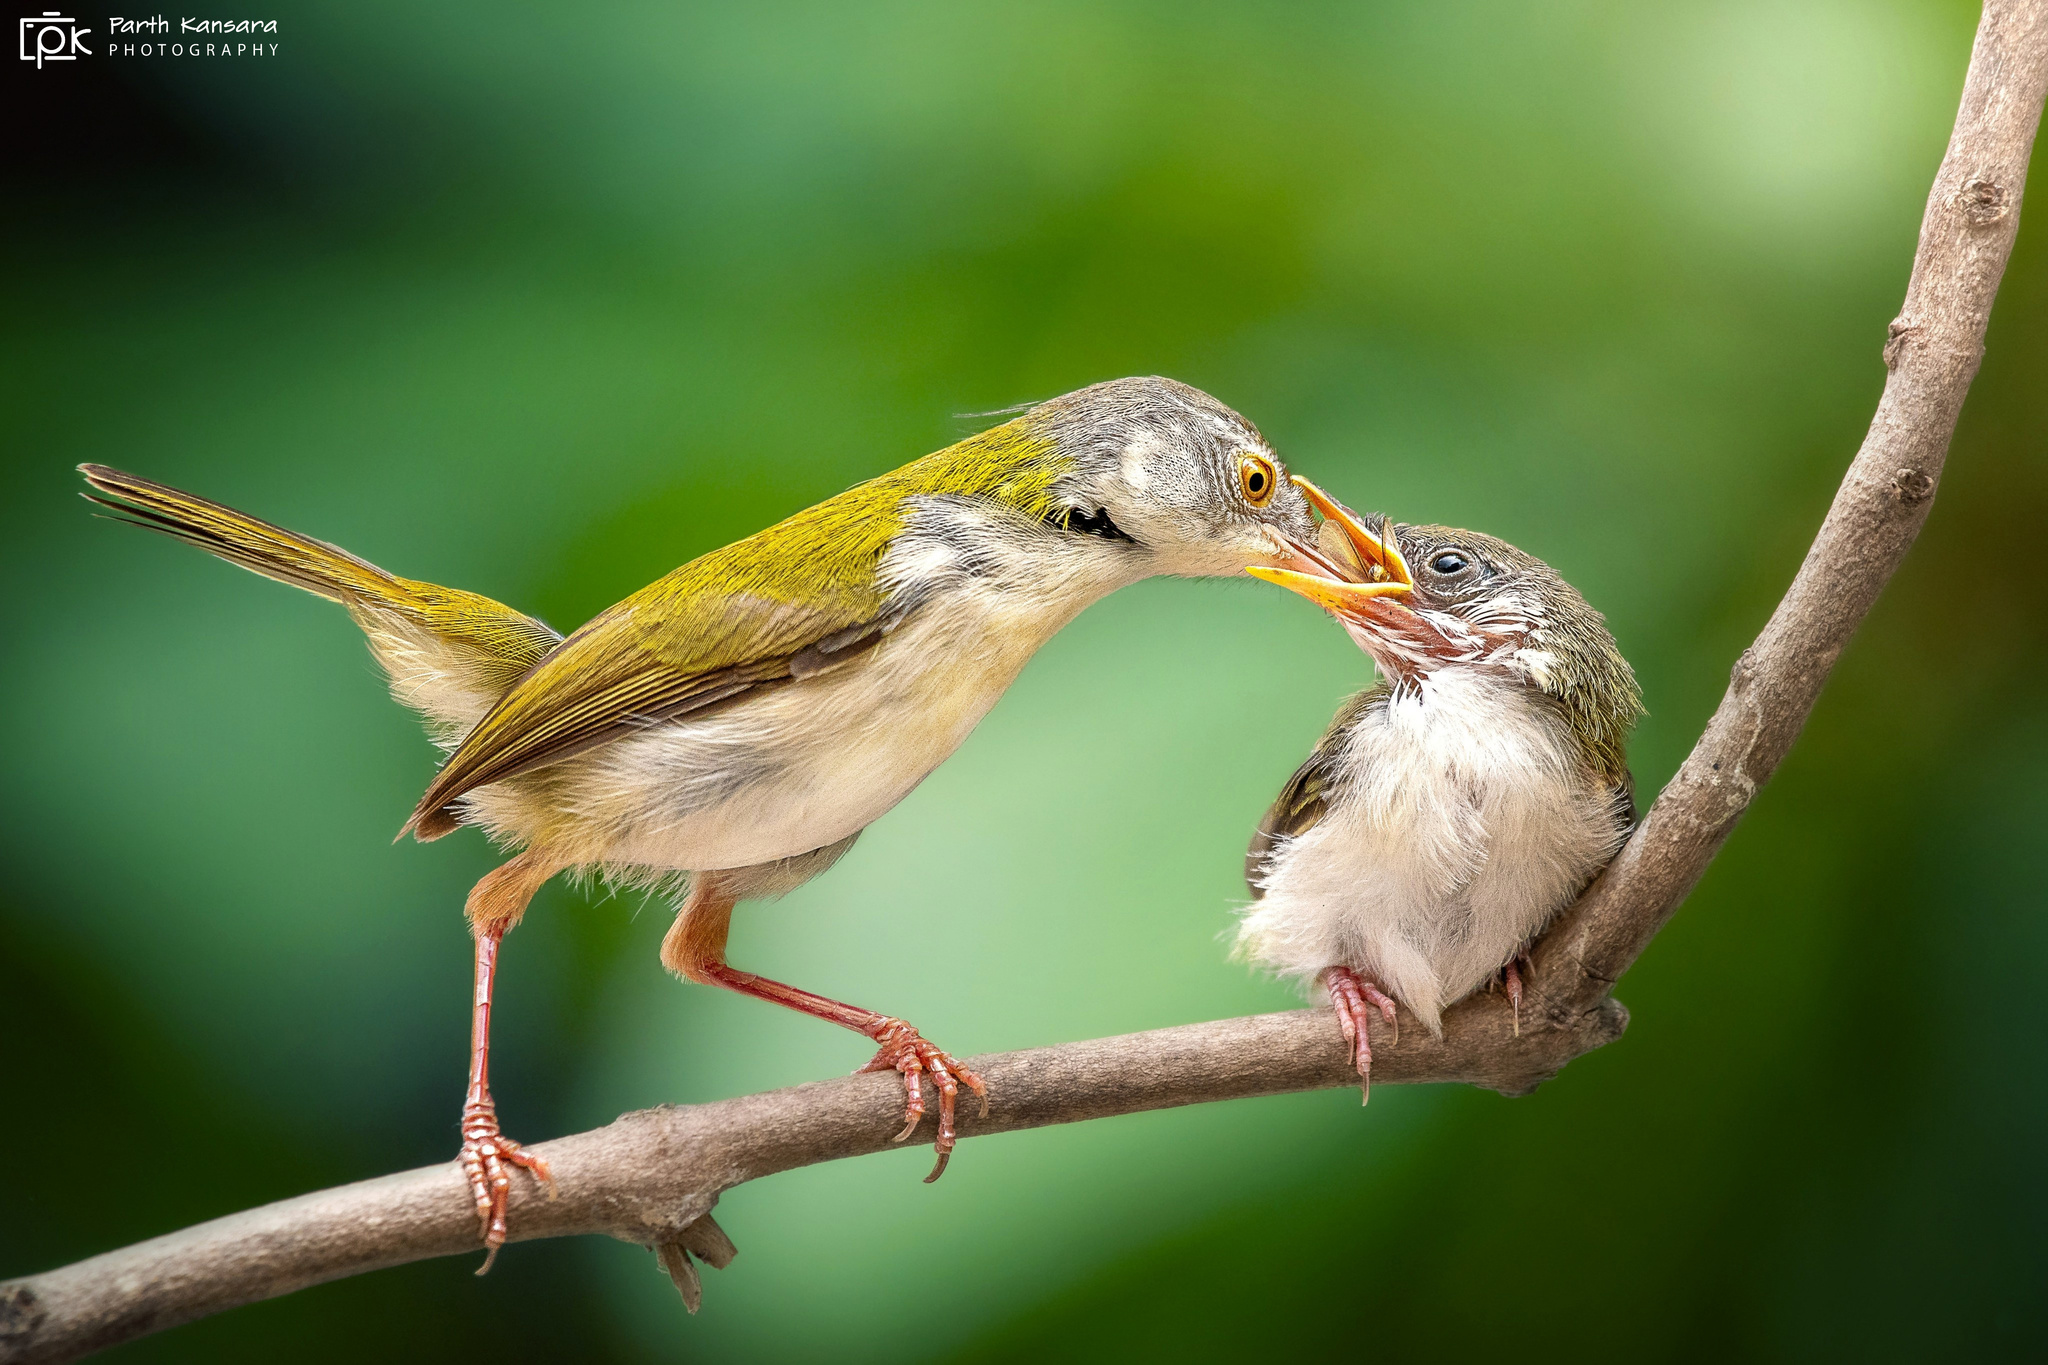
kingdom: Animalia
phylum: Chordata
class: Aves
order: Passeriformes
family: Cisticolidae
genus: Orthotomus
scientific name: Orthotomus sutorius
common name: Common tailorbird
